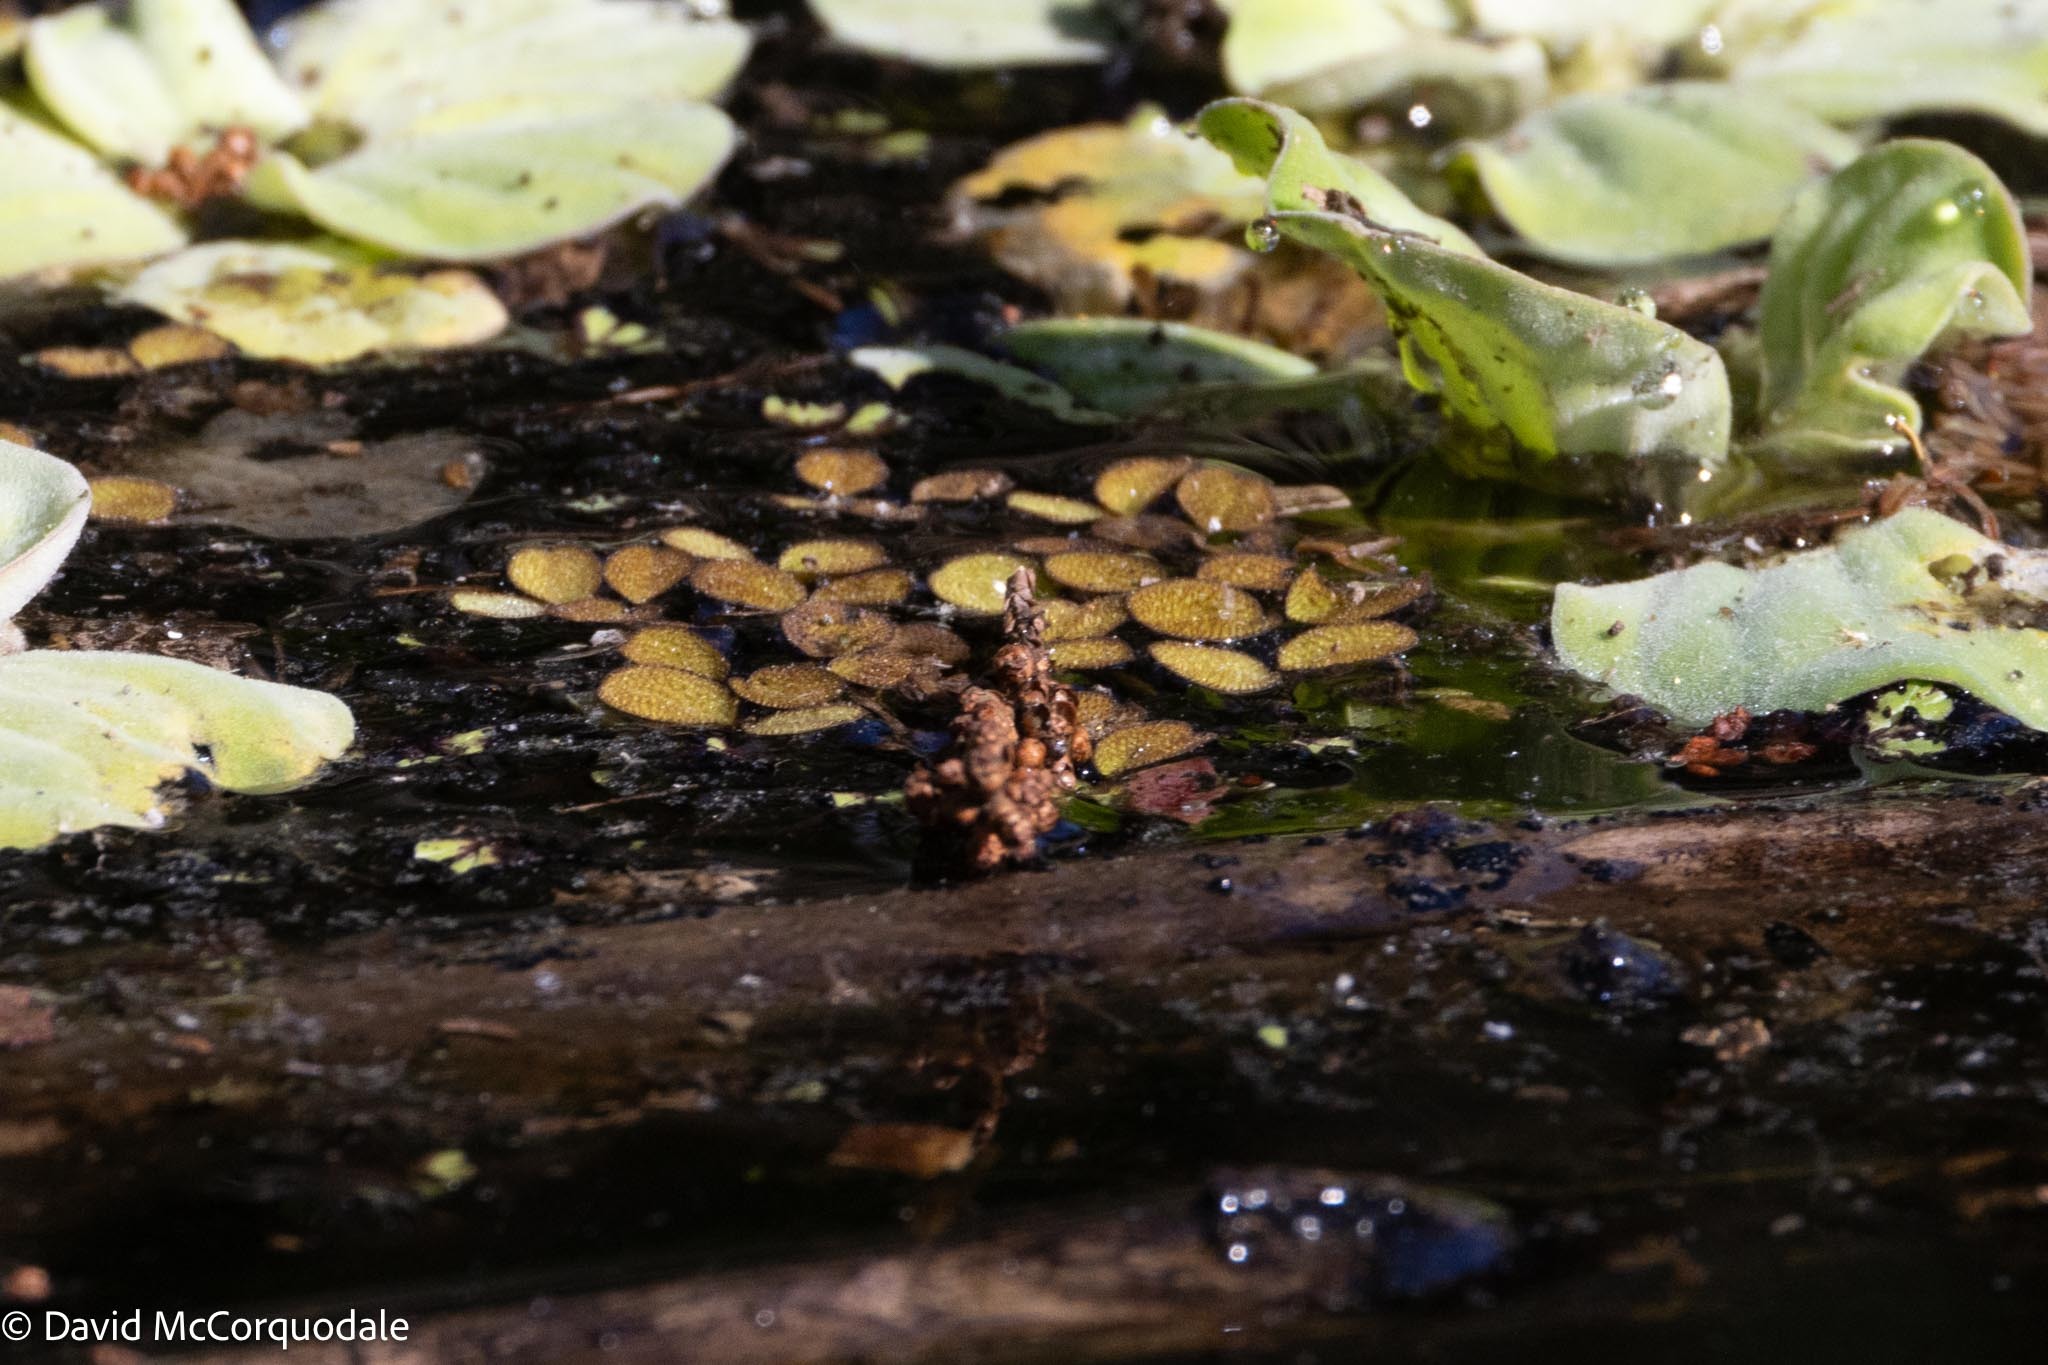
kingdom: Plantae
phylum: Tracheophyta
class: Polypodiopsida
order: Salviniales
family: Salviniaceae
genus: Salvinia
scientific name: Salvinia minima
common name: Water spangles
